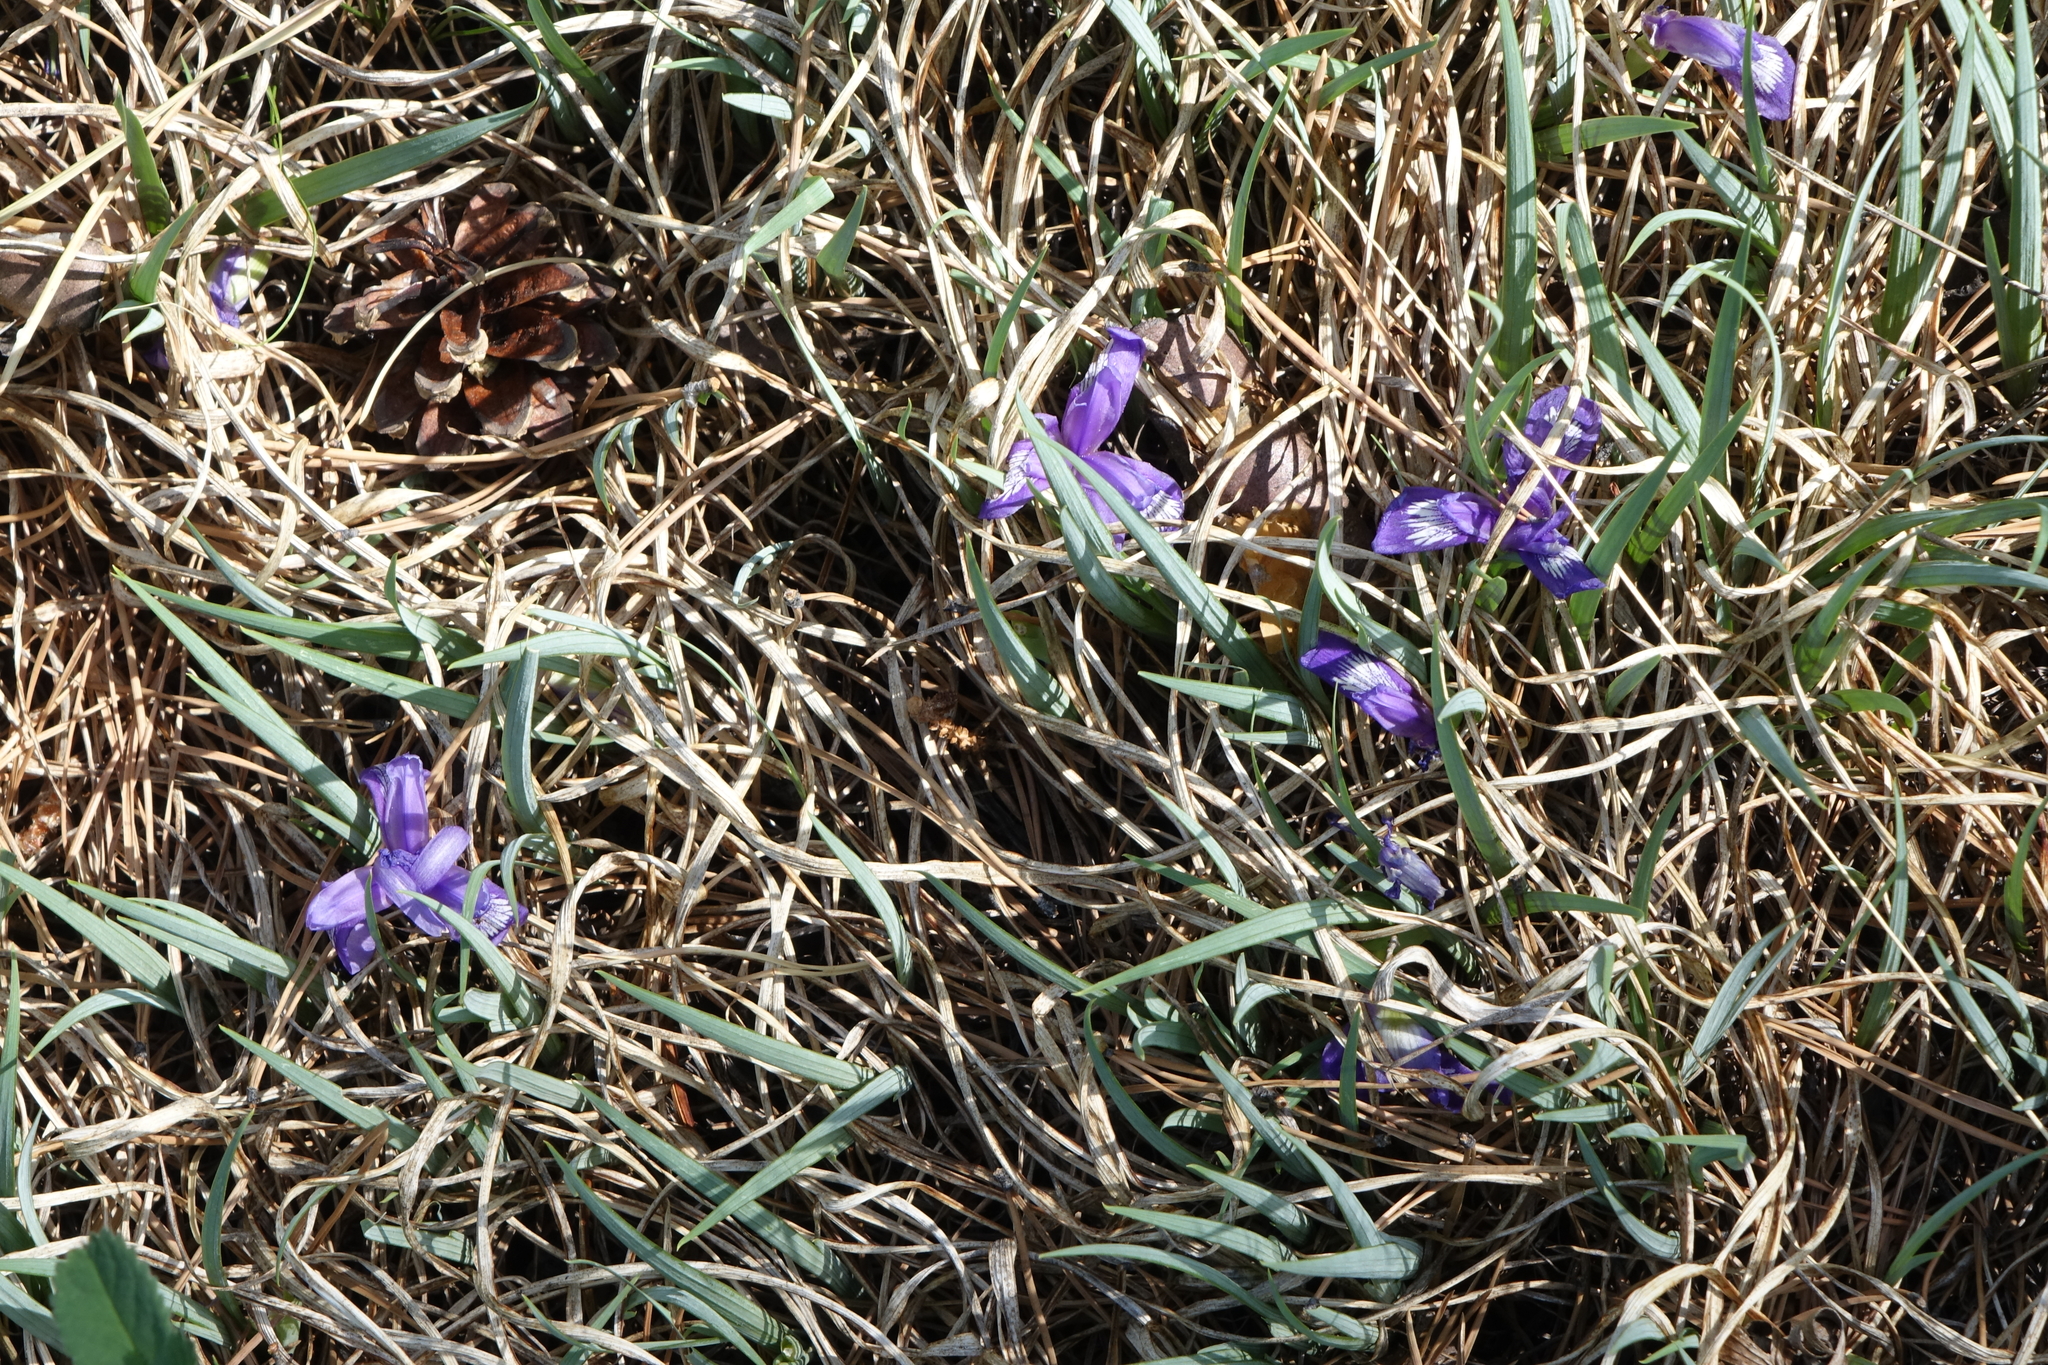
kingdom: Plantae
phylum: Tracheophyta
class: Liliopsida
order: Asparagales
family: Iridaceae
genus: Iris
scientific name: Iris ruthenica
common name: Purple-bract iris
